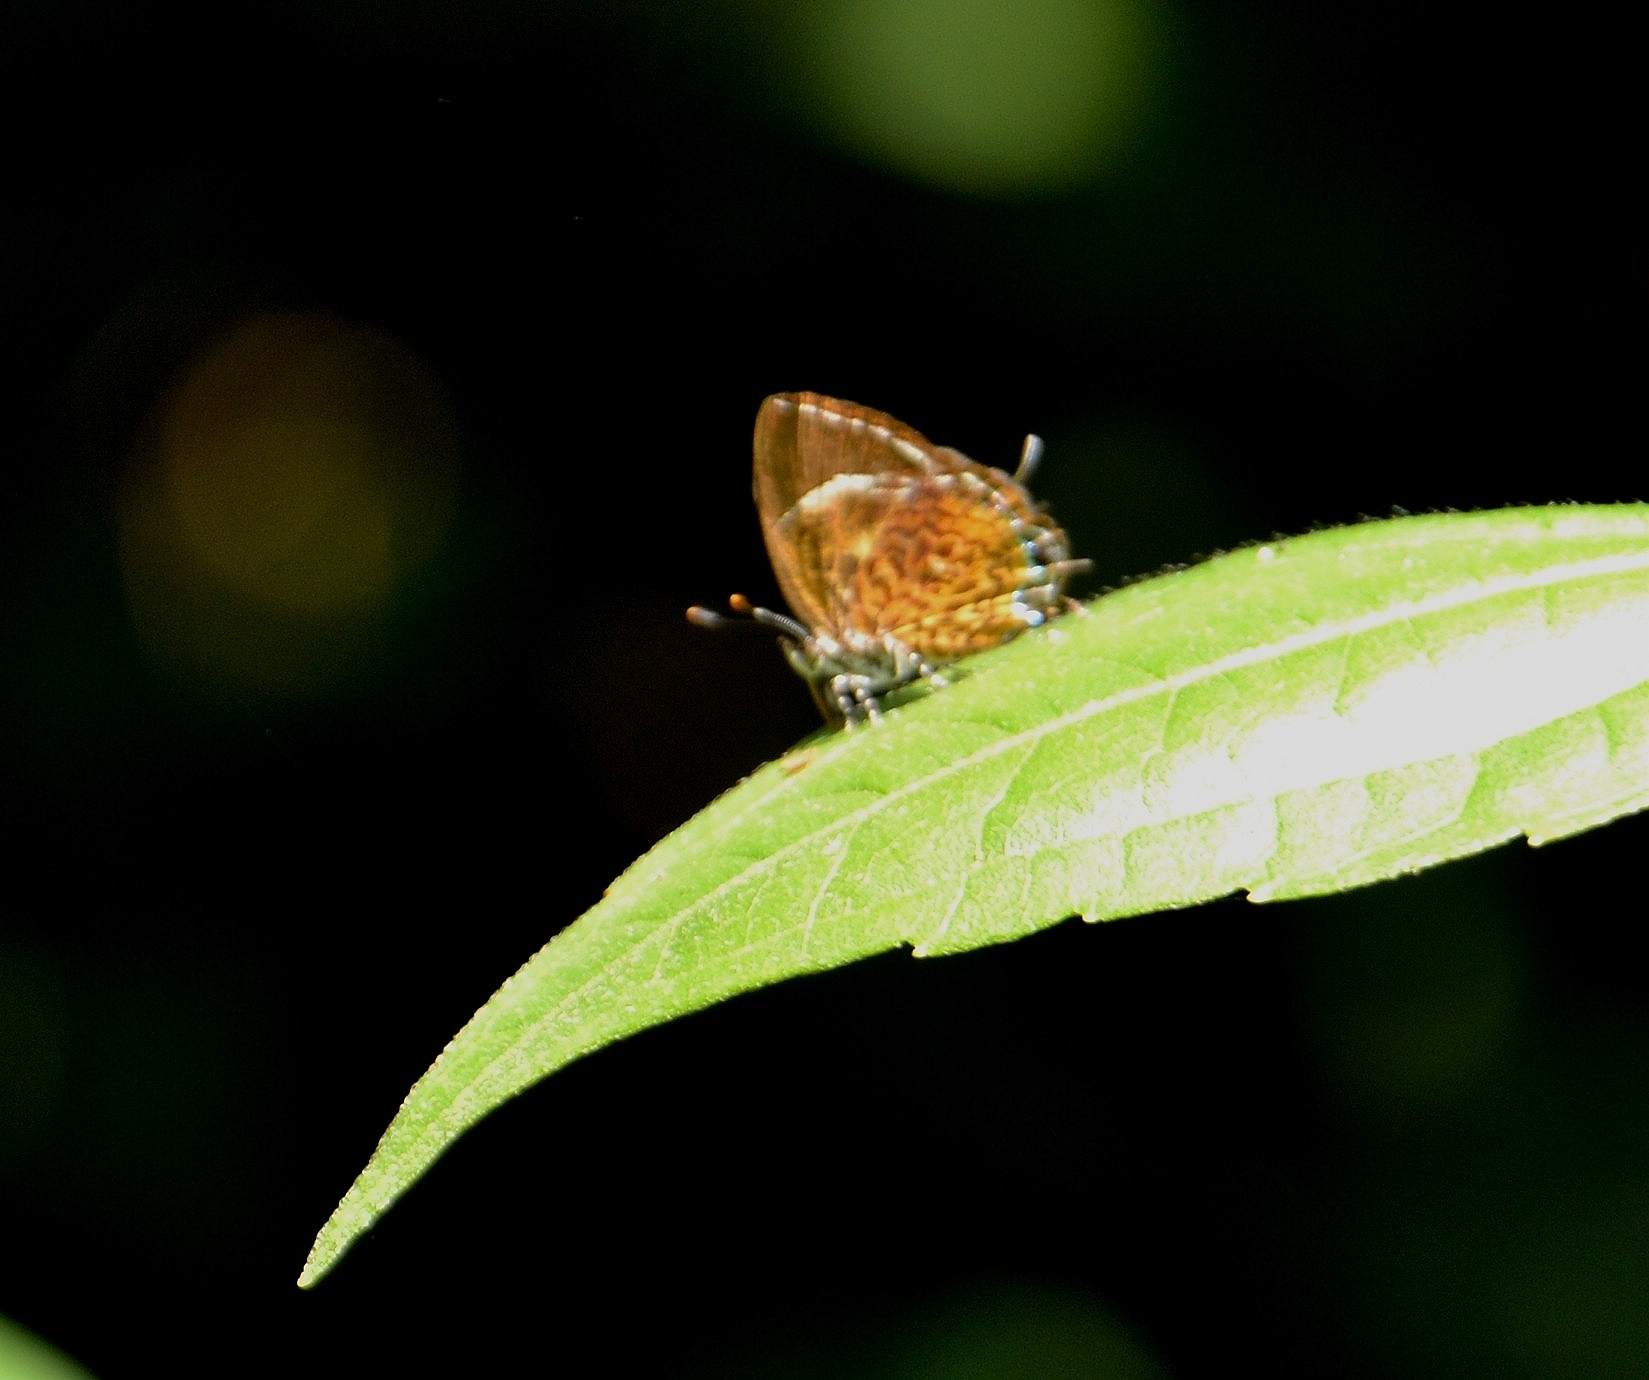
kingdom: Animalia
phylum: Arthropoda
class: Insecta
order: Lepidoptera
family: Lycaenidae
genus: Rathinda
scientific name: Rathinda amor
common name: Monkey puzzle
